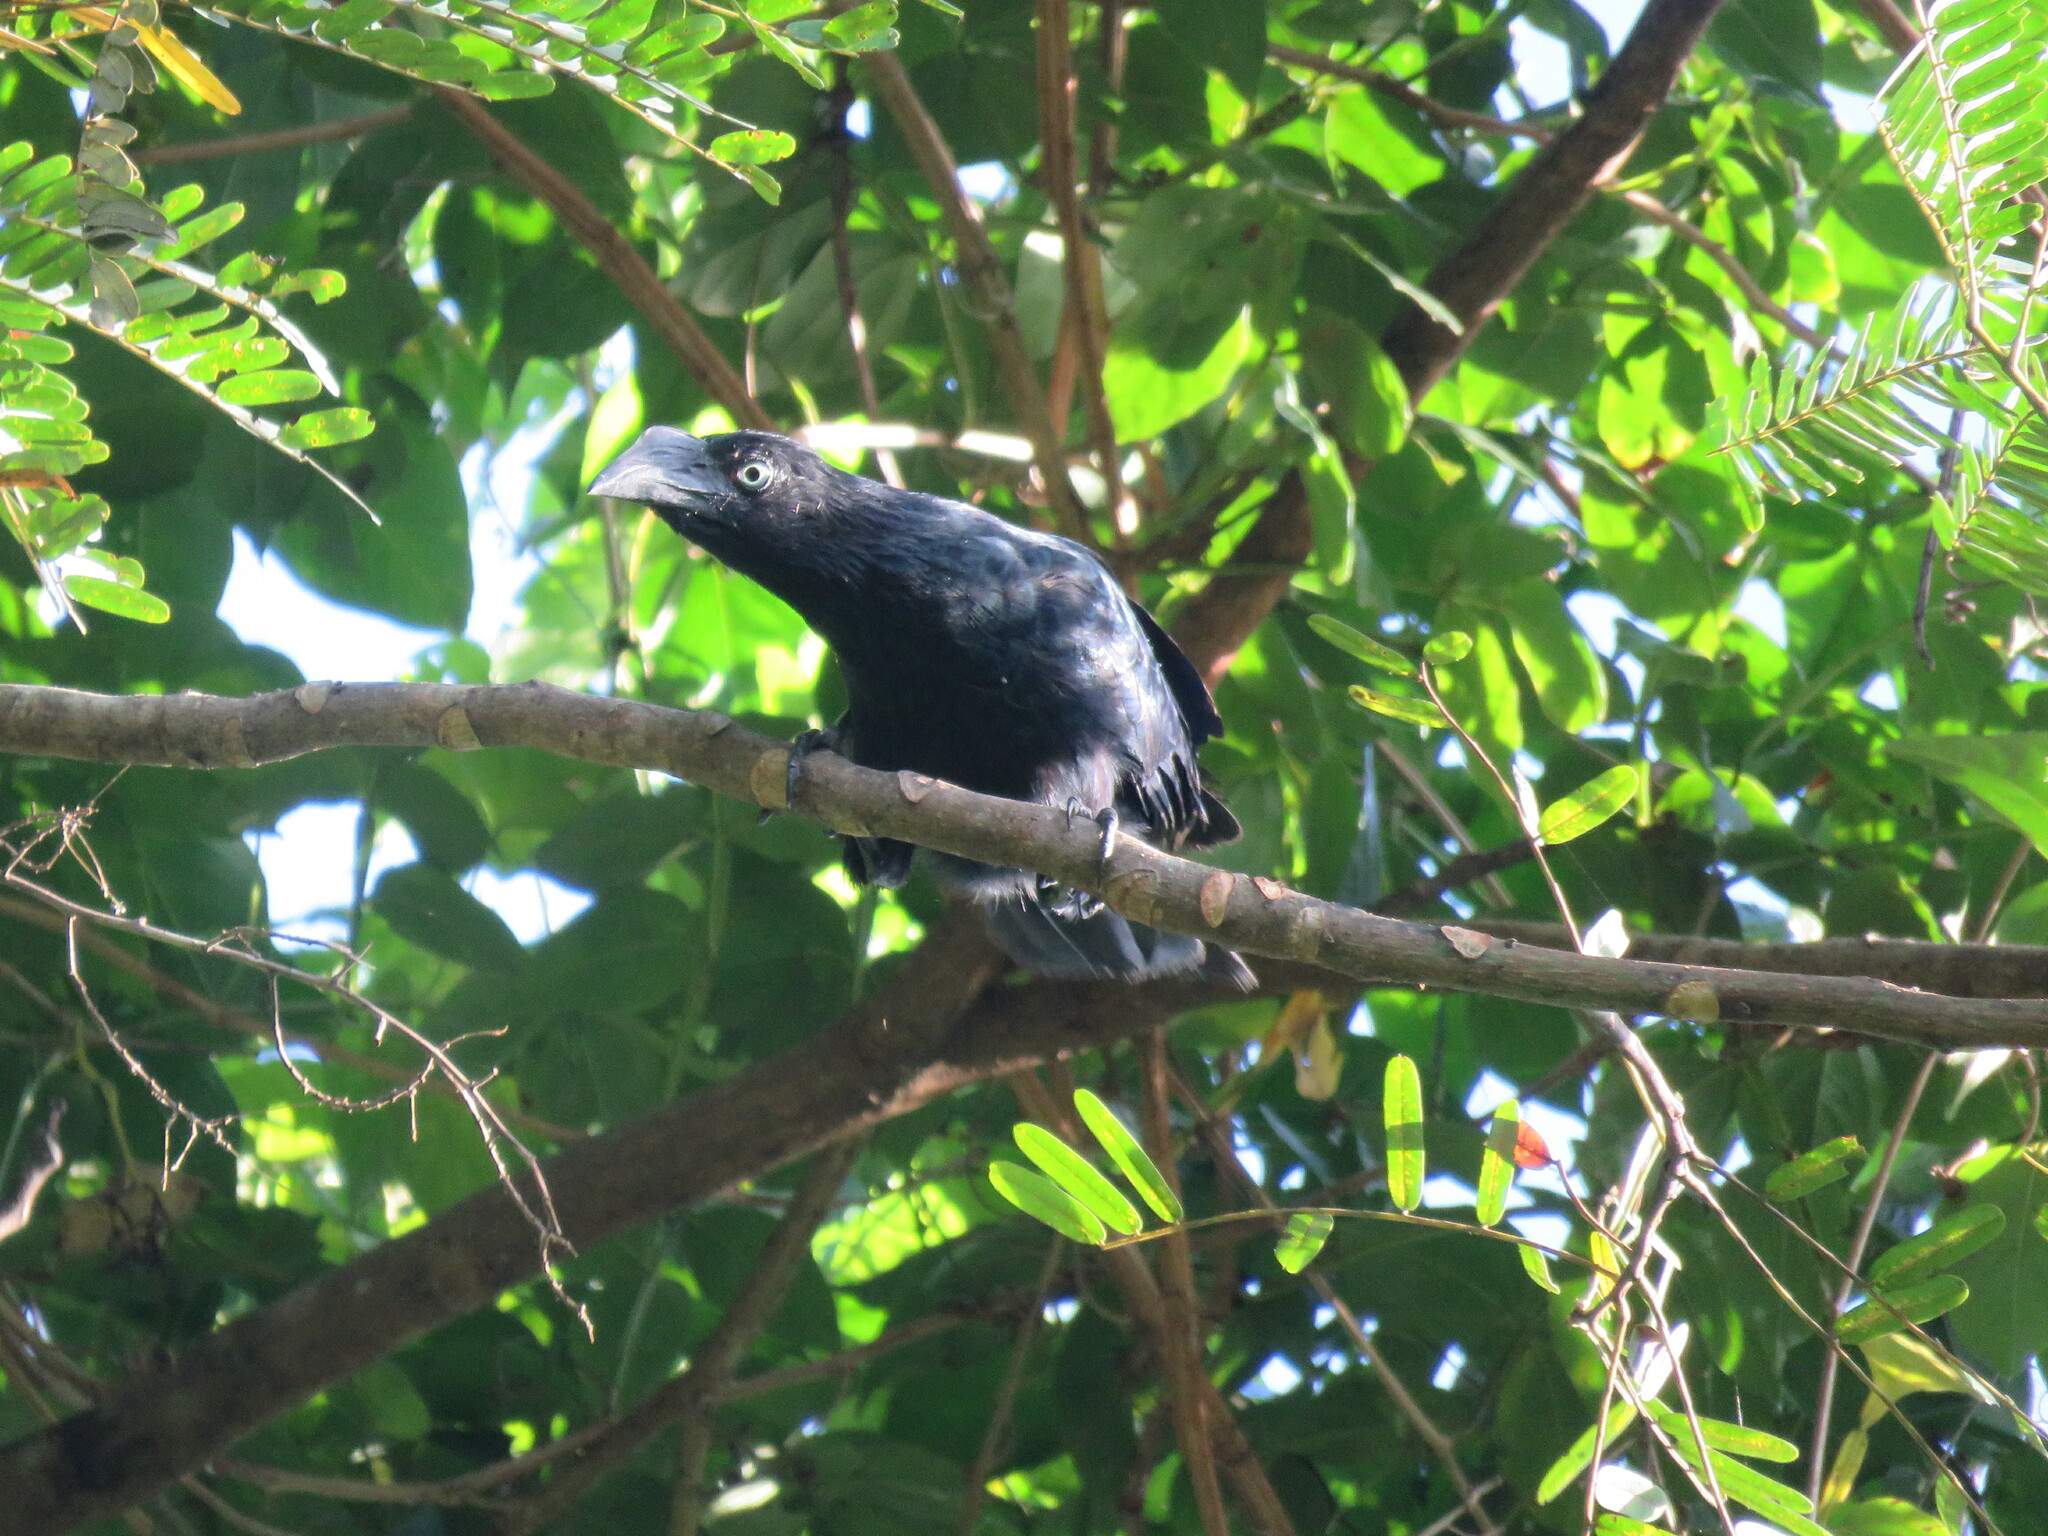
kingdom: Animalia
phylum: Chordata
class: Aves
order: Cuculiformes
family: Cuculidae
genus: Crotophaga
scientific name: Crotophaga major
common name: Greater ani
